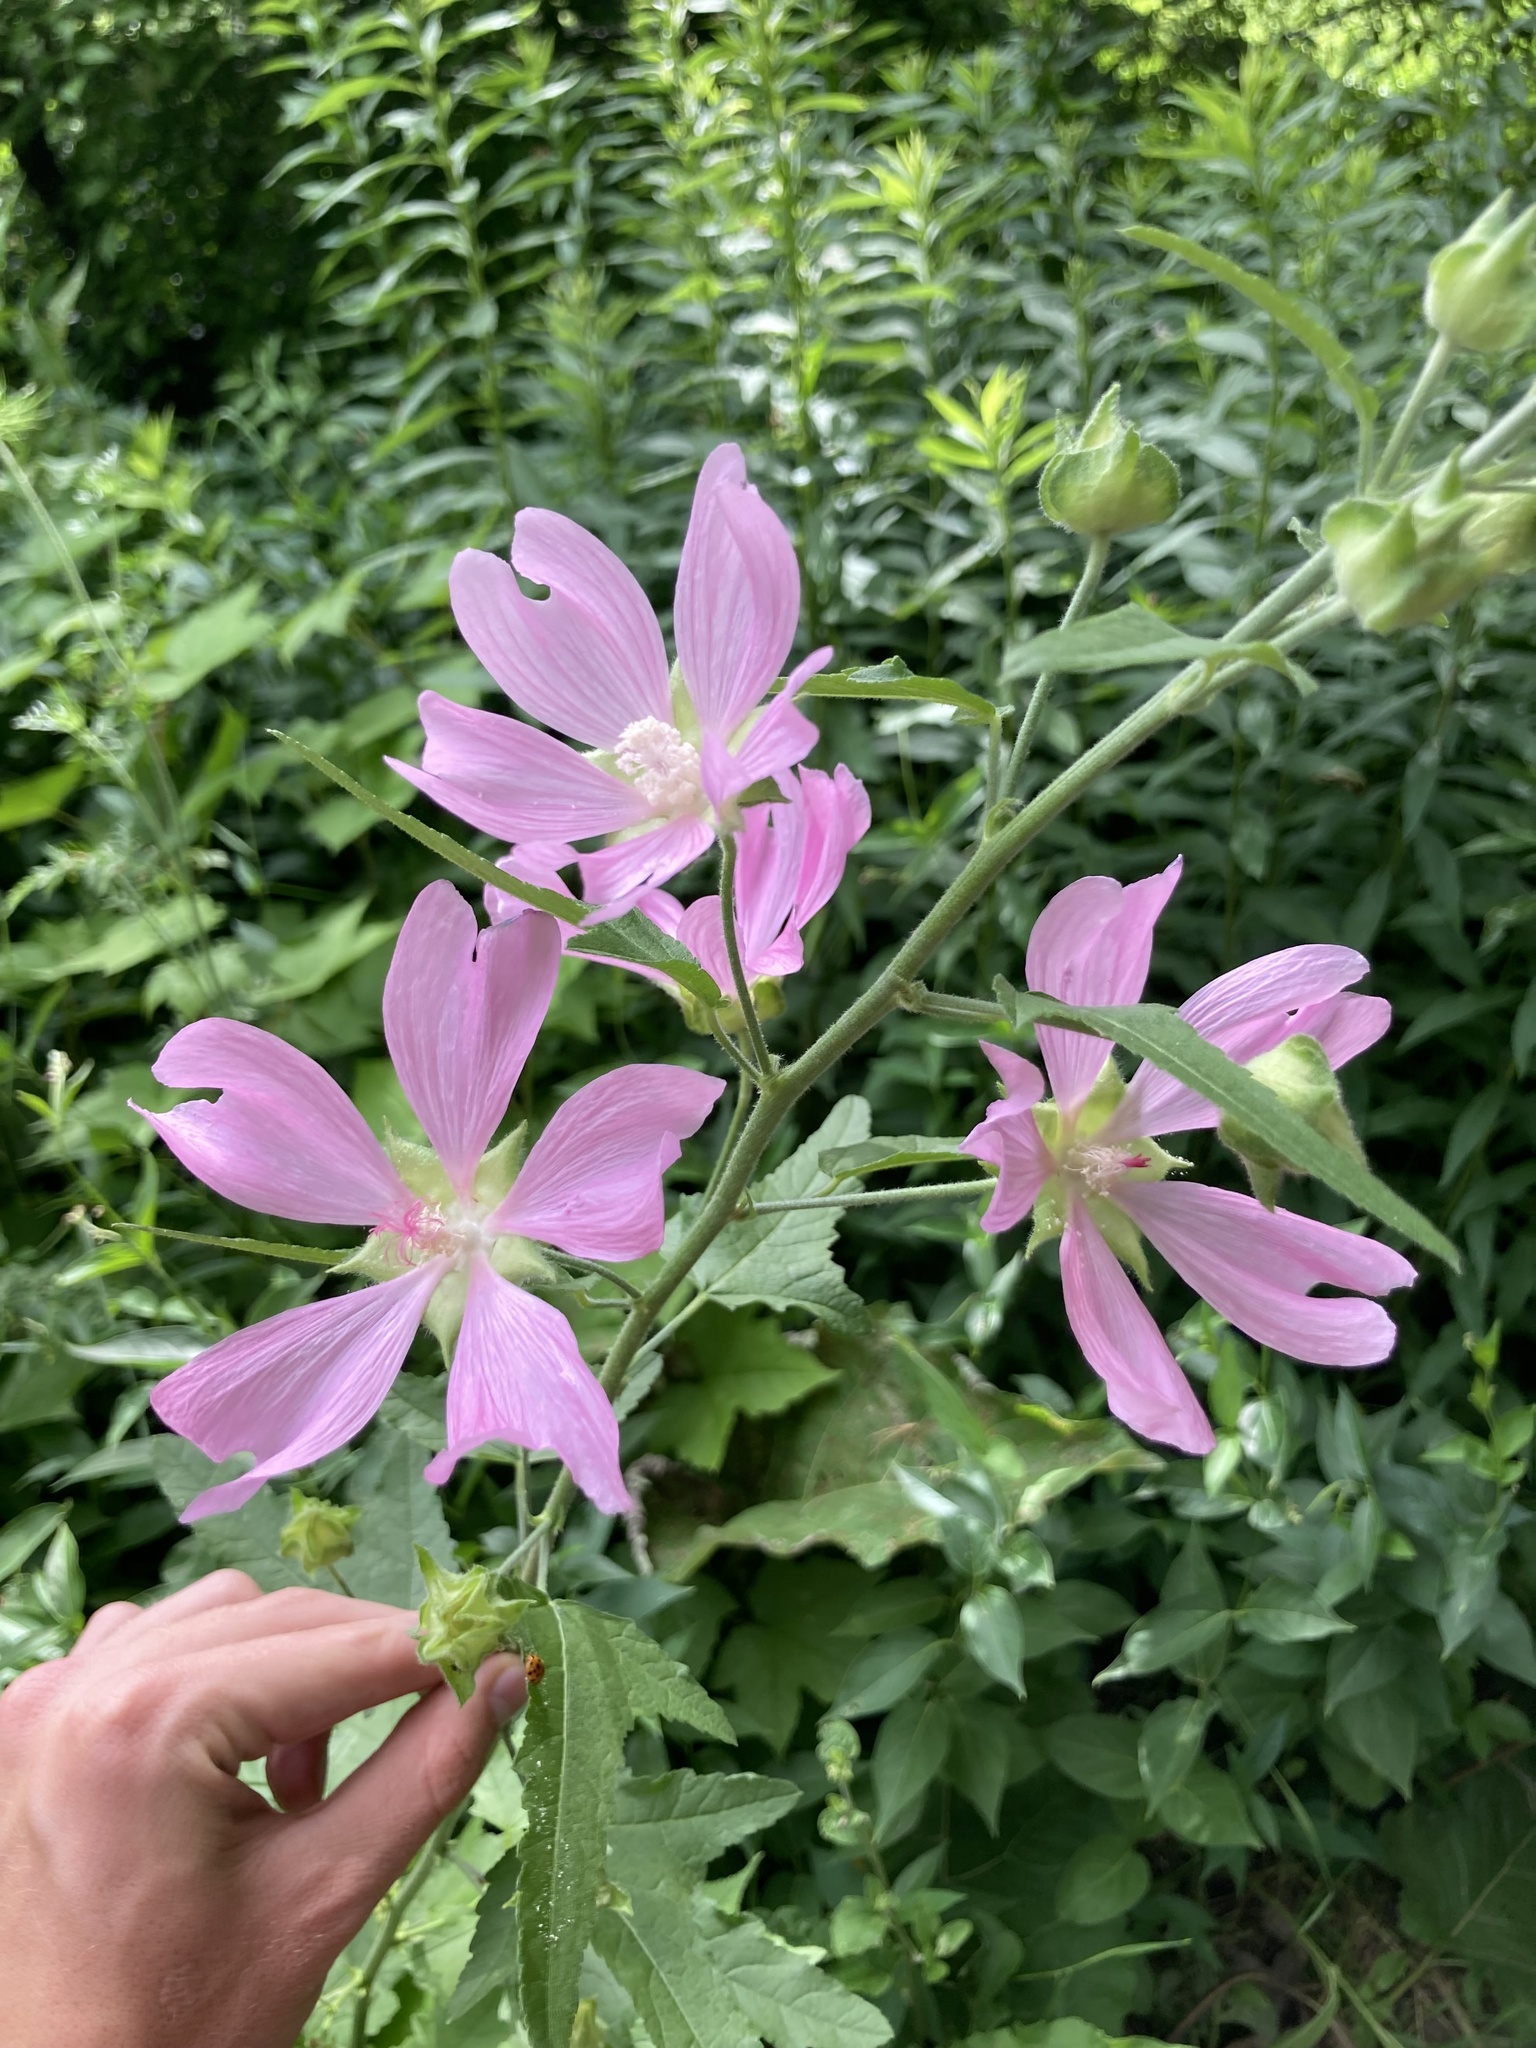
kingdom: Plantae
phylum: Tracheophyta
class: Magnoliopsida
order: Malvales
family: Malvaceae
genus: Malva
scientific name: Malva moschata
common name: Musk mallow
